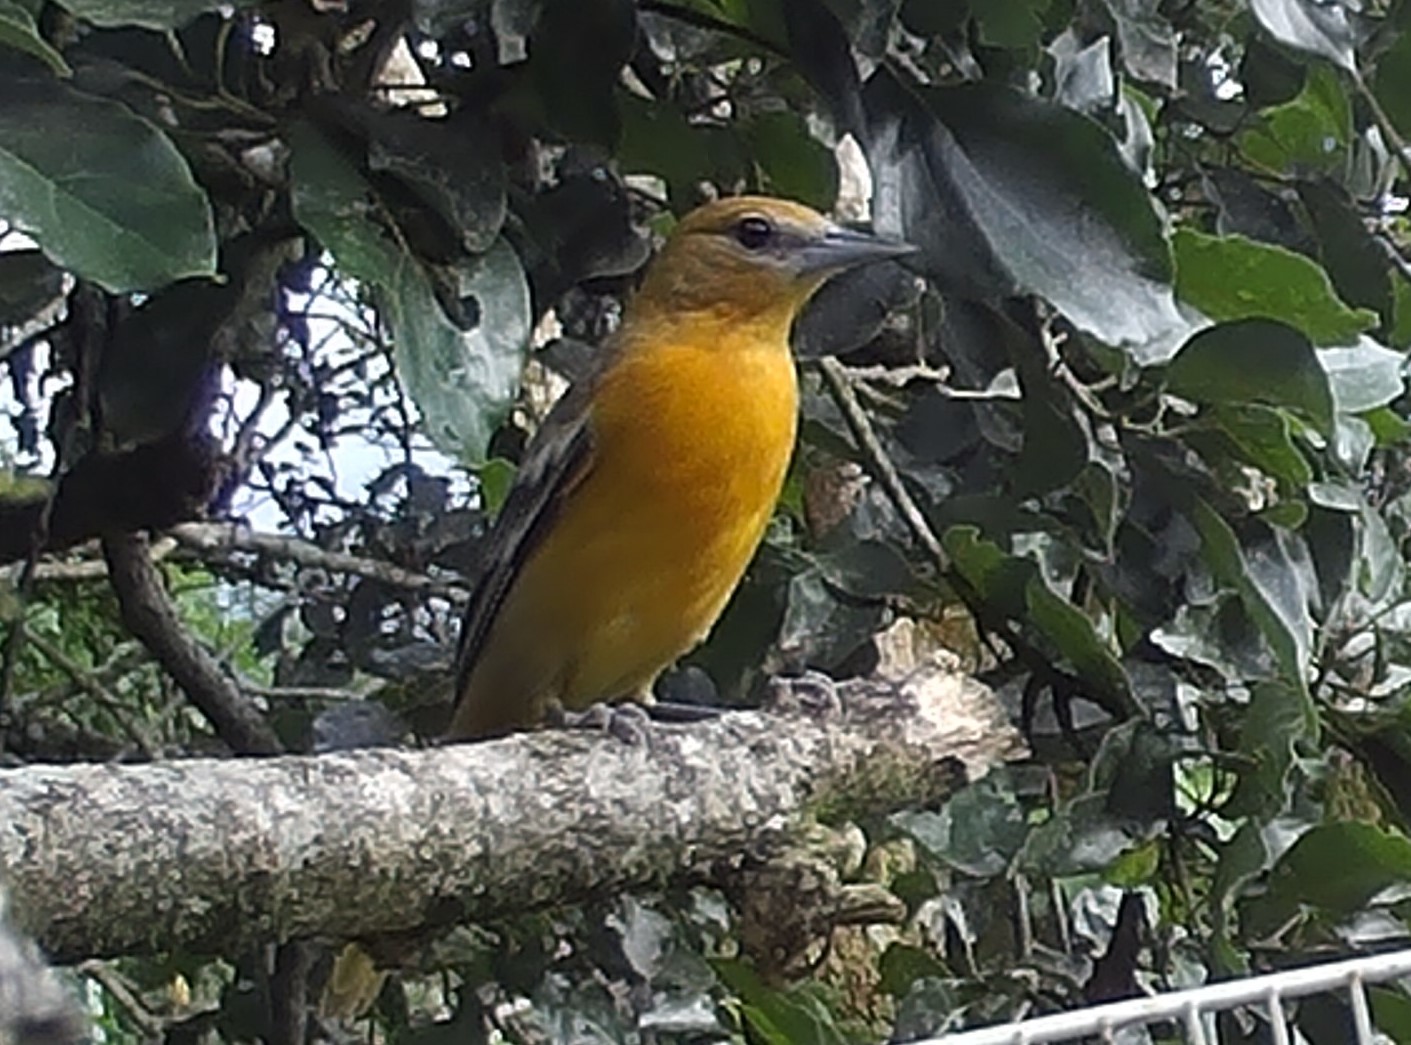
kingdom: Animalia
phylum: Chordata
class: Aves
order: Passeriformes
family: Icteridae
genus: Icterus
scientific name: Icterus galbula
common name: Baltimore oriole
